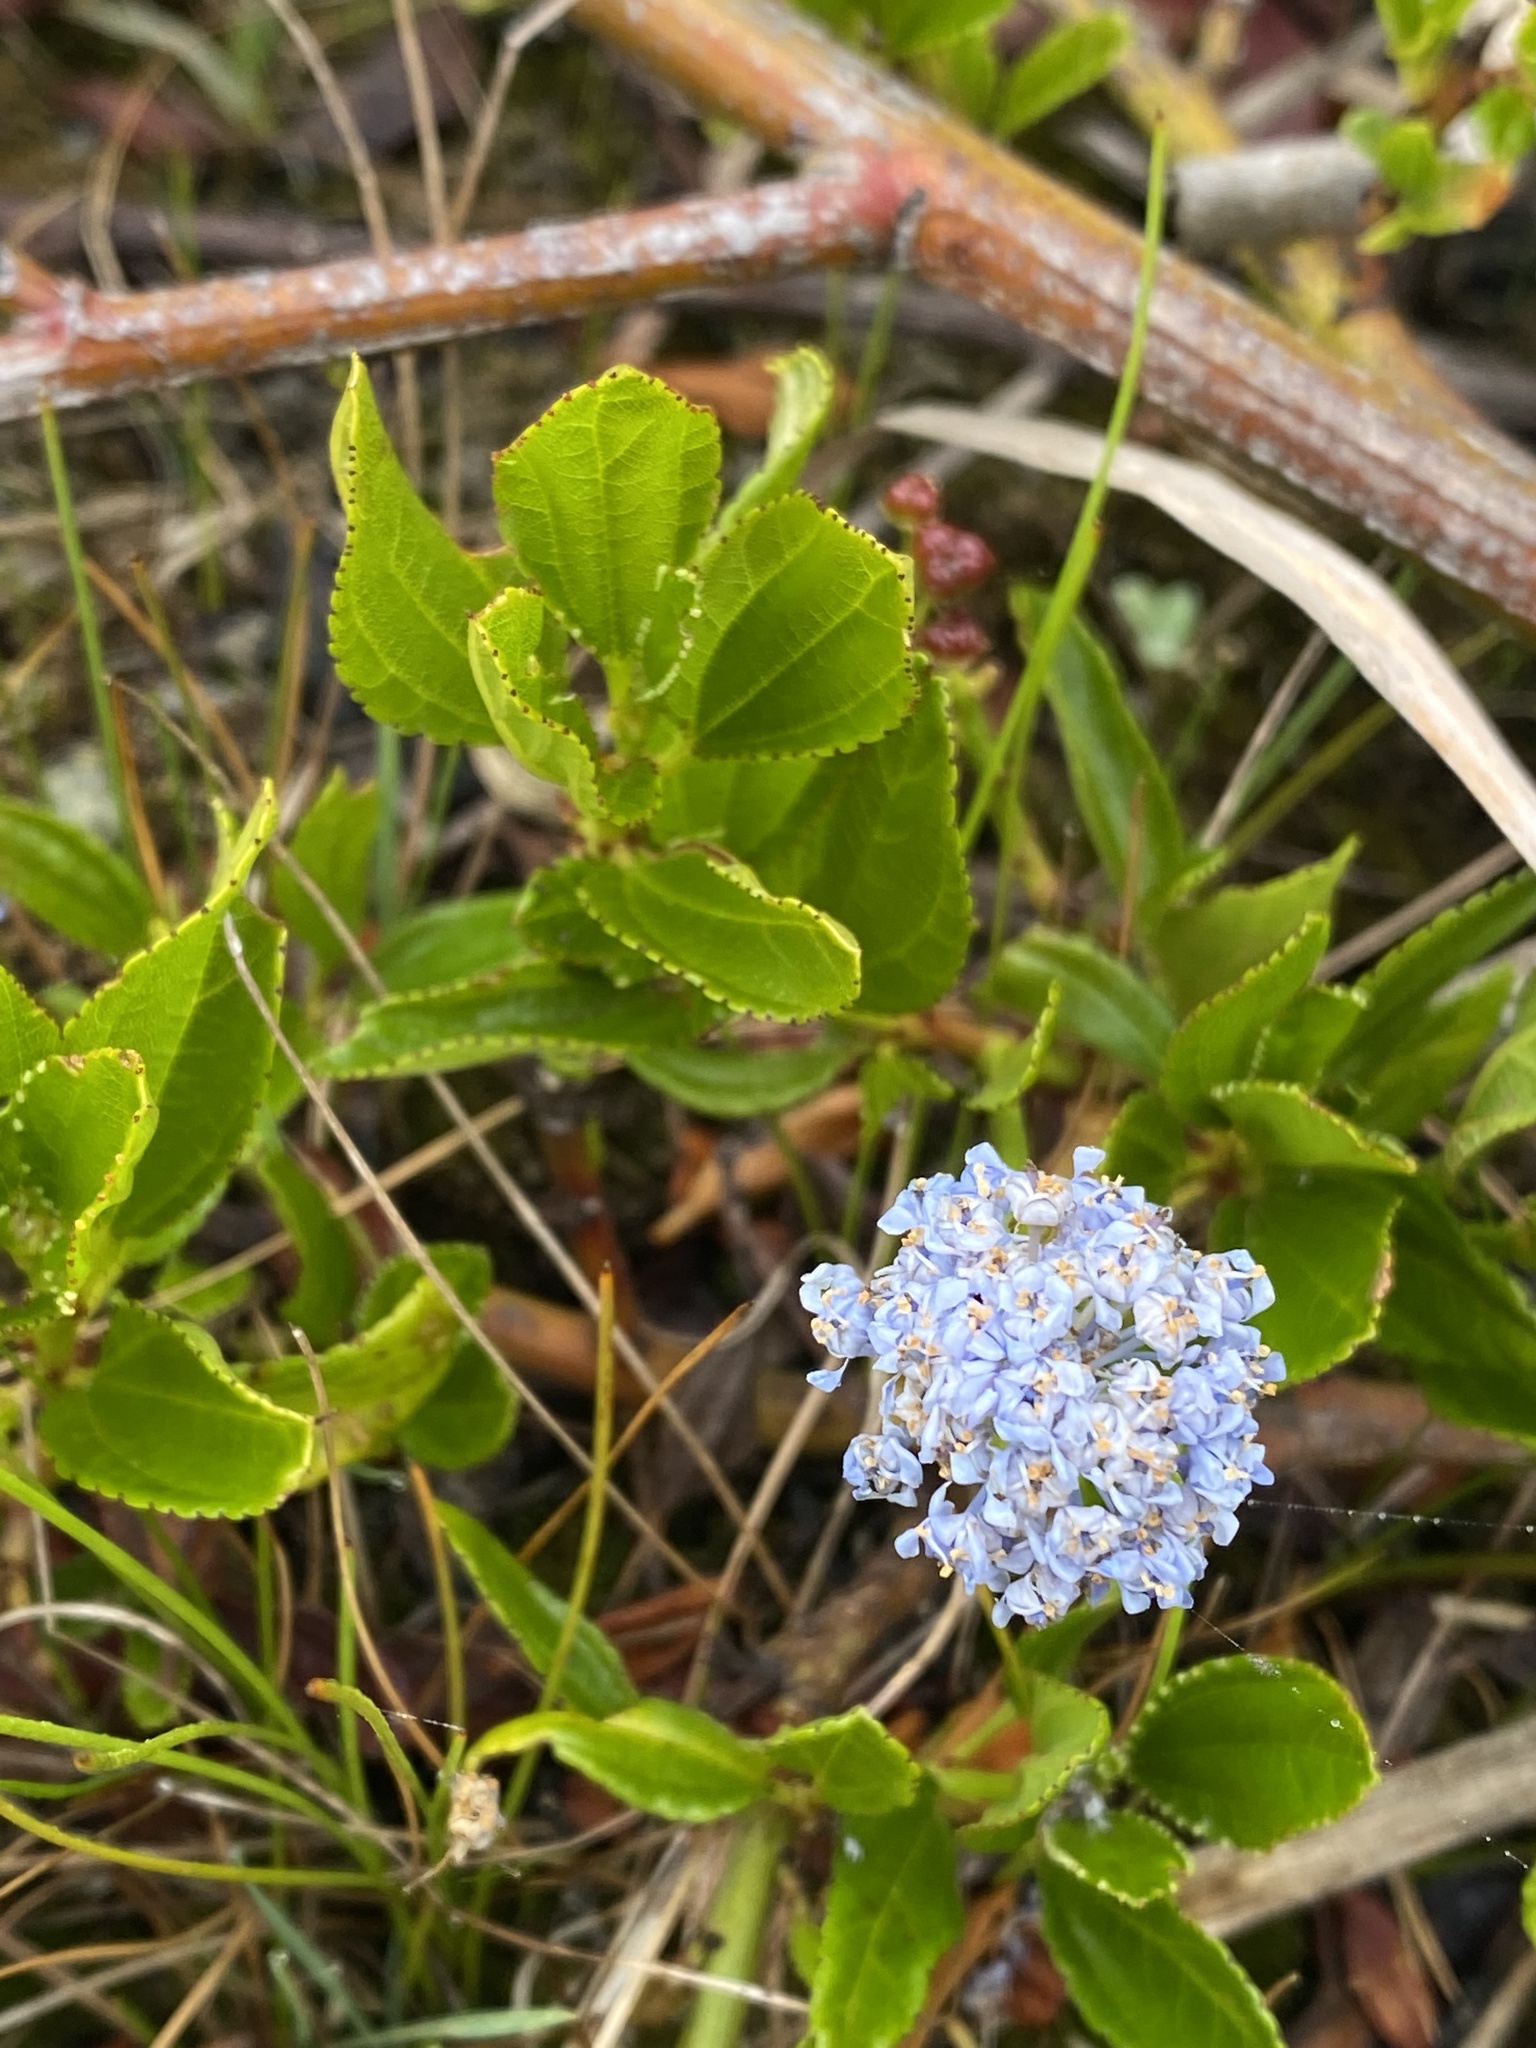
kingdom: Plantae
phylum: Tracheophyta
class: Magnoliopsida
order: Rosales
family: Rhamnaceae
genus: Ceanothus
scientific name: Ceanothus thyrsiflorus
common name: California-lilac
